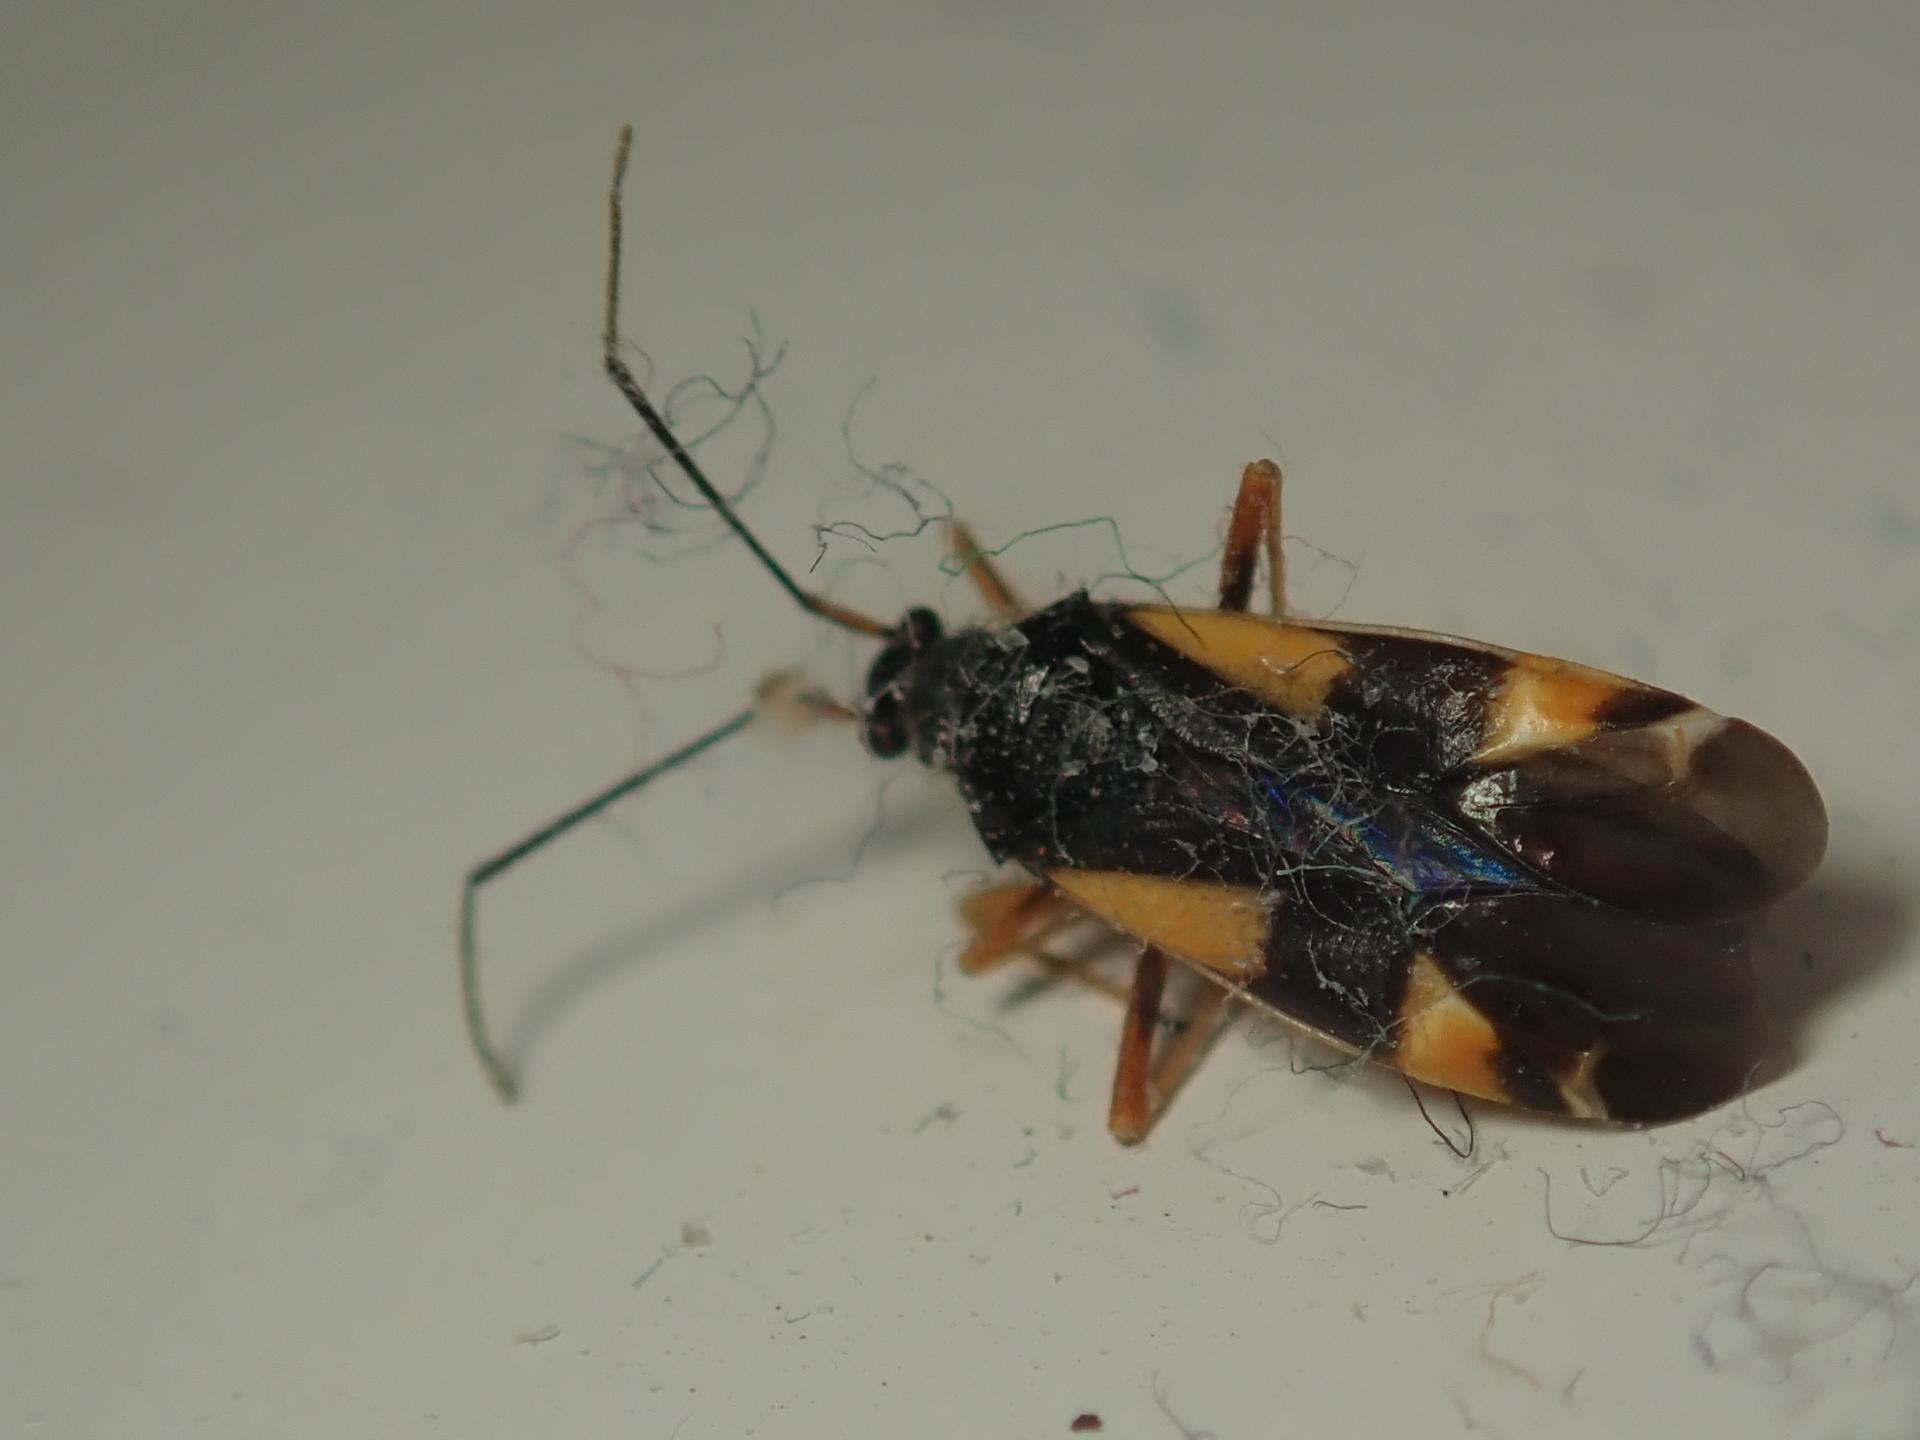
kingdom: Animalia
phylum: Arthropoda
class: Insecta
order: Hemiptera
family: Miridae
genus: Dryophilocoris
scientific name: Dryophilocoris flavoquadrimaculatus
